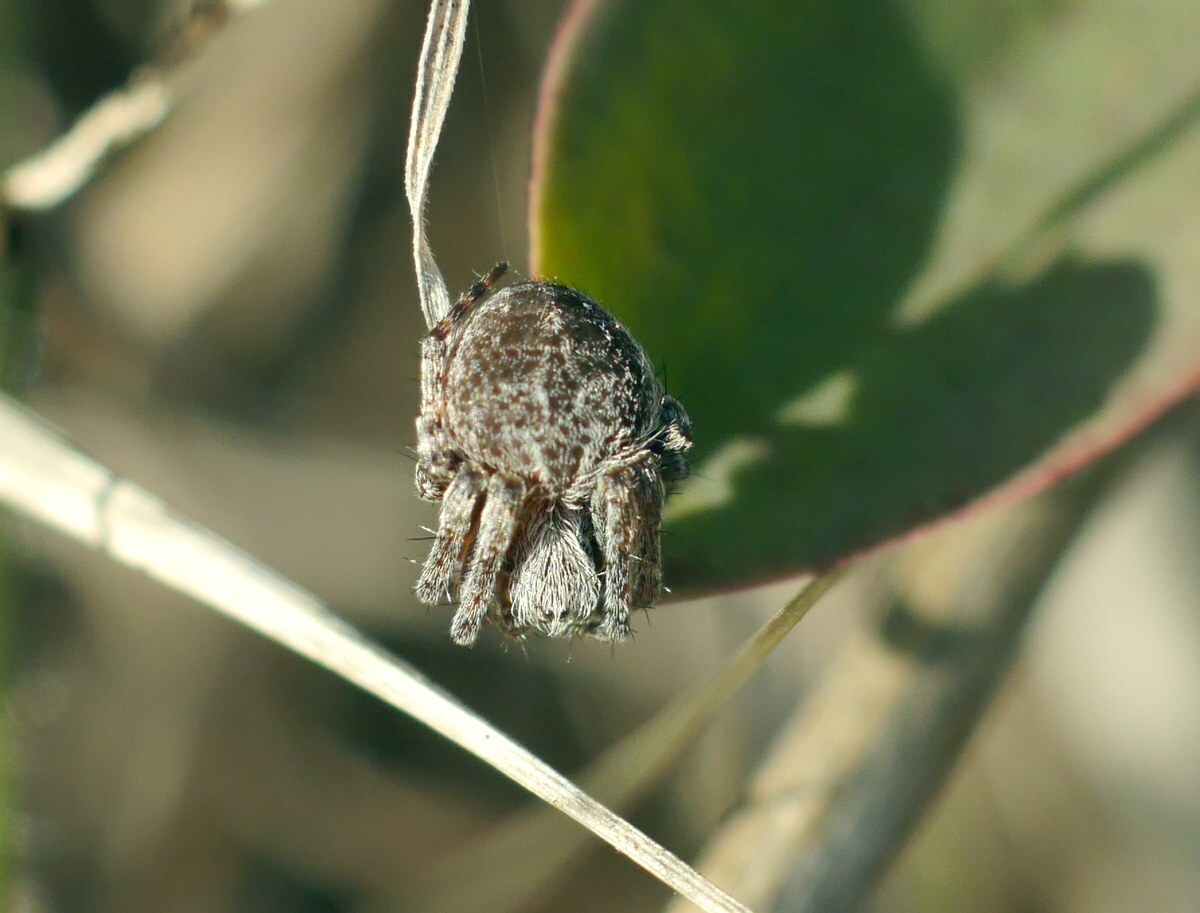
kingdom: Animalia
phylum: Arthropoda
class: Arachnida
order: Araneae
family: Araneidae
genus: Agalenatea
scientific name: Agalenatea redii
